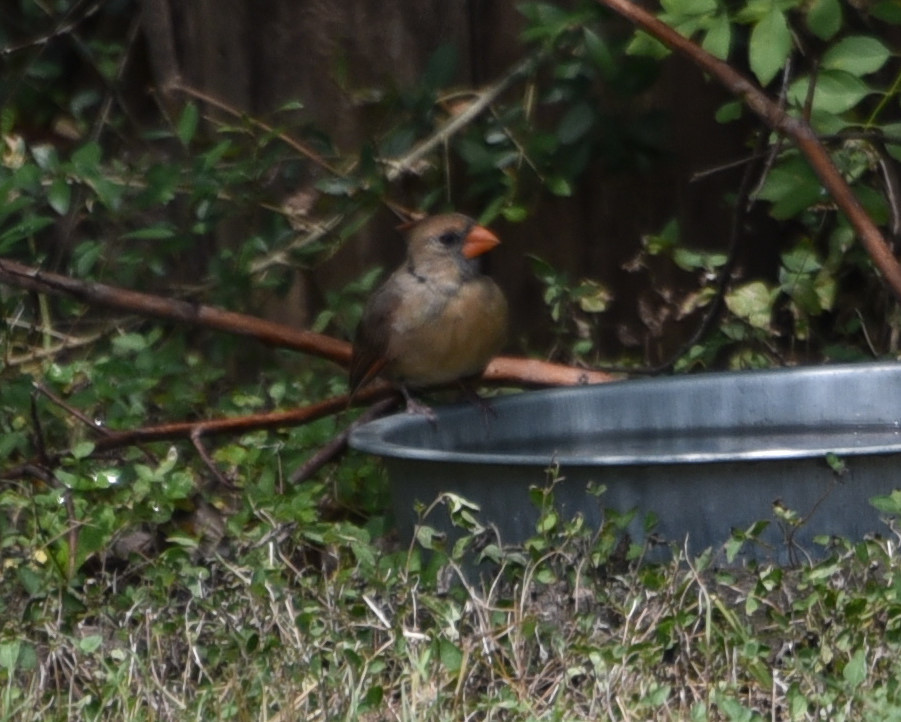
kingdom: Animalia
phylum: Chordata
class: Aves
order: Passeriformes
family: Cardinalidae
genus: Cardinalis
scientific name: Cardinalis cardinalis
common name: Northern cardinal
